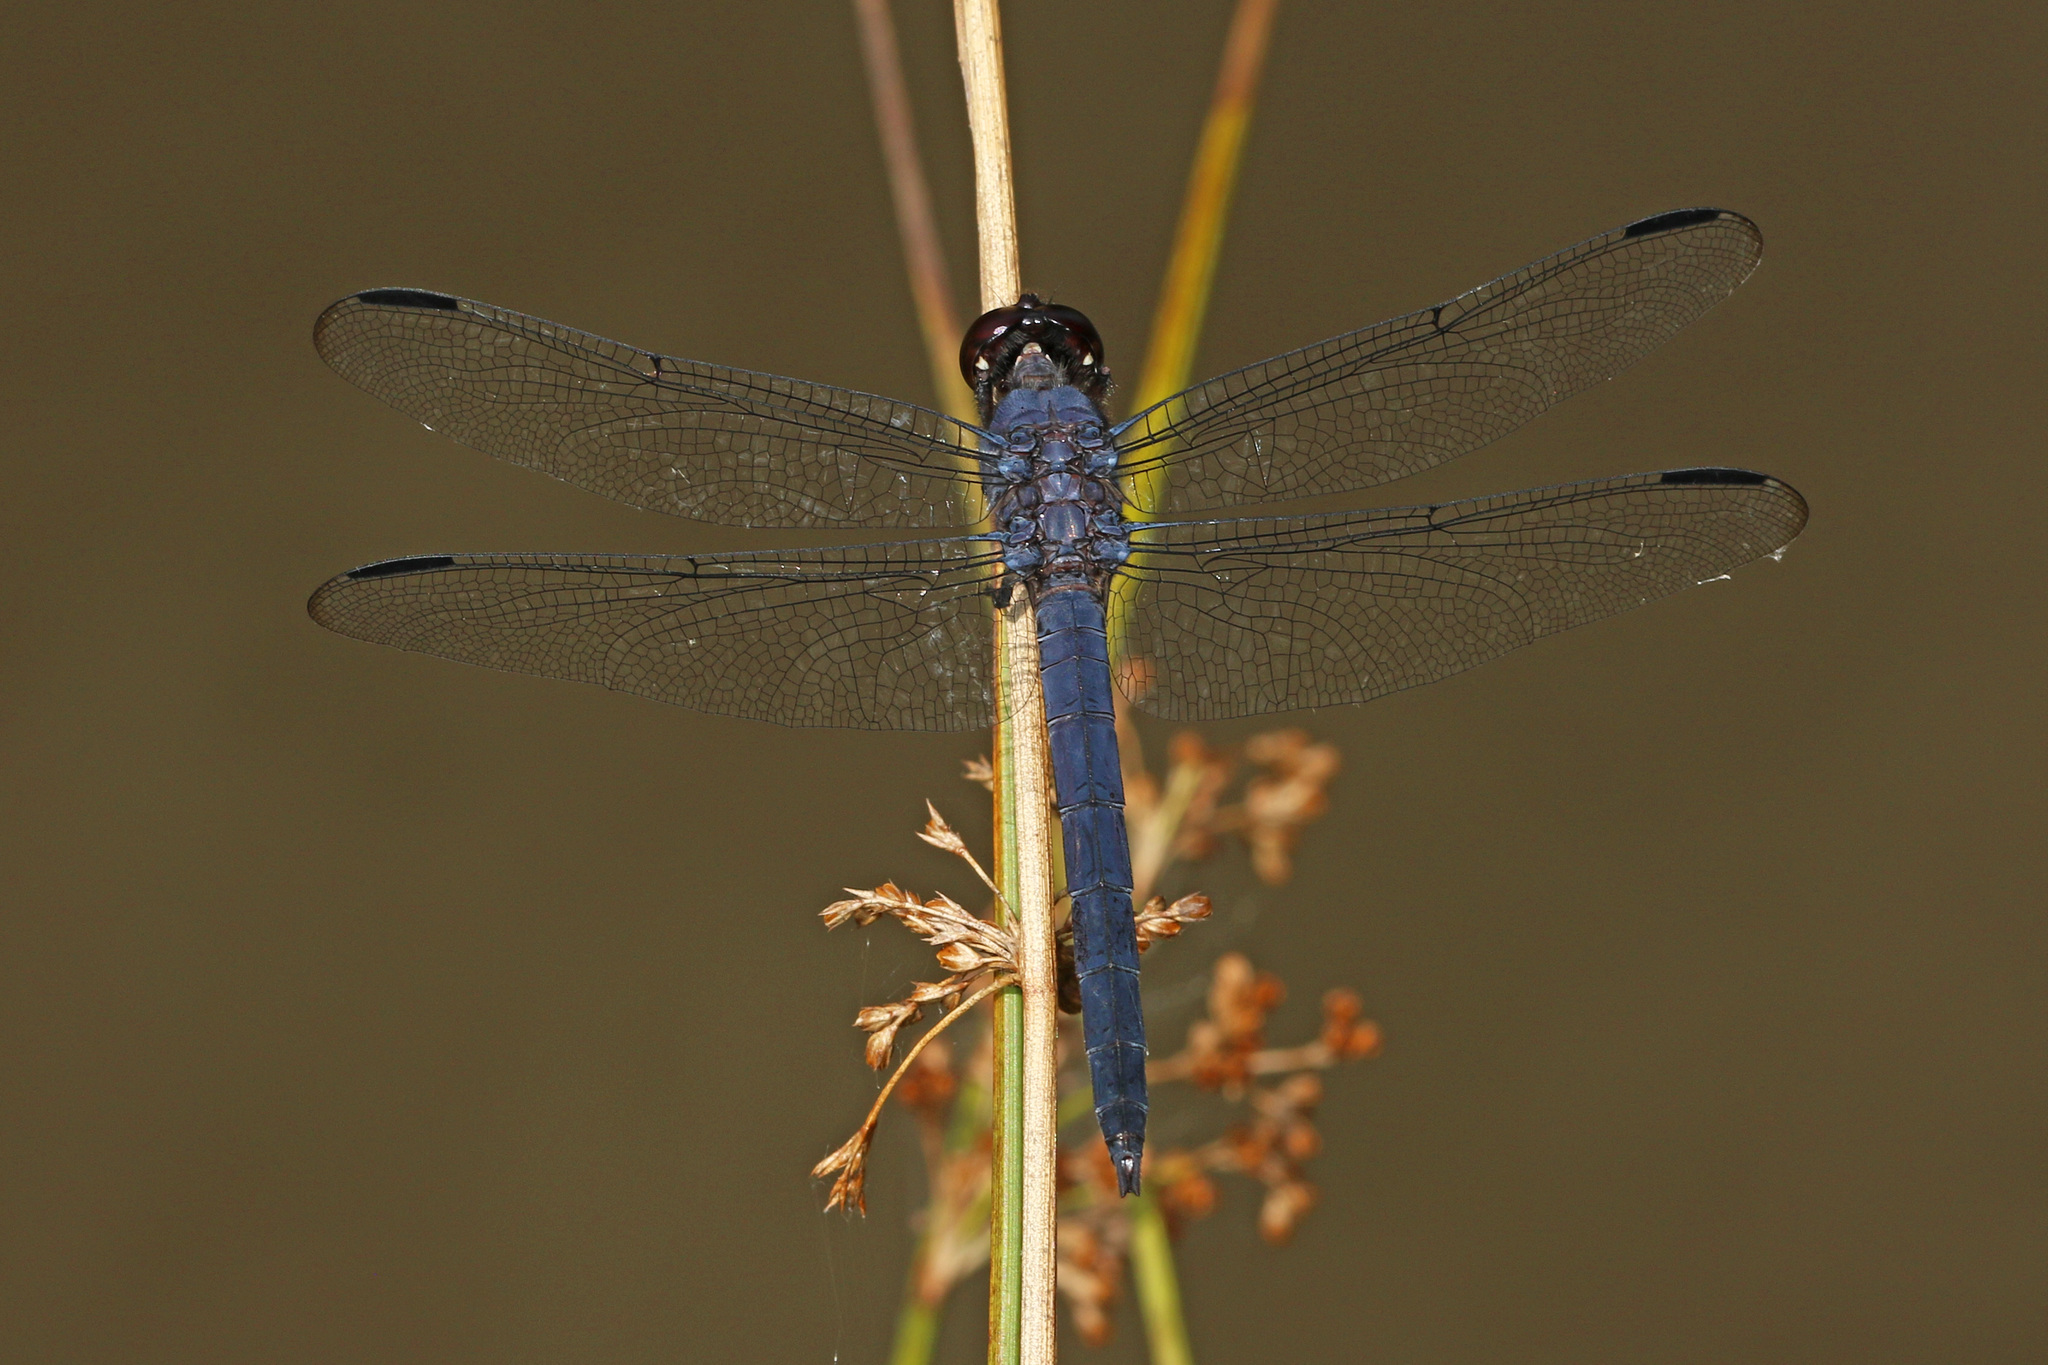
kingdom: Animalia
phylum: Arthropoda
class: Insecta
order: Odonata
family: Libellulidae
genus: Libellula
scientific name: Libellula incesta
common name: Slaty skimmer
